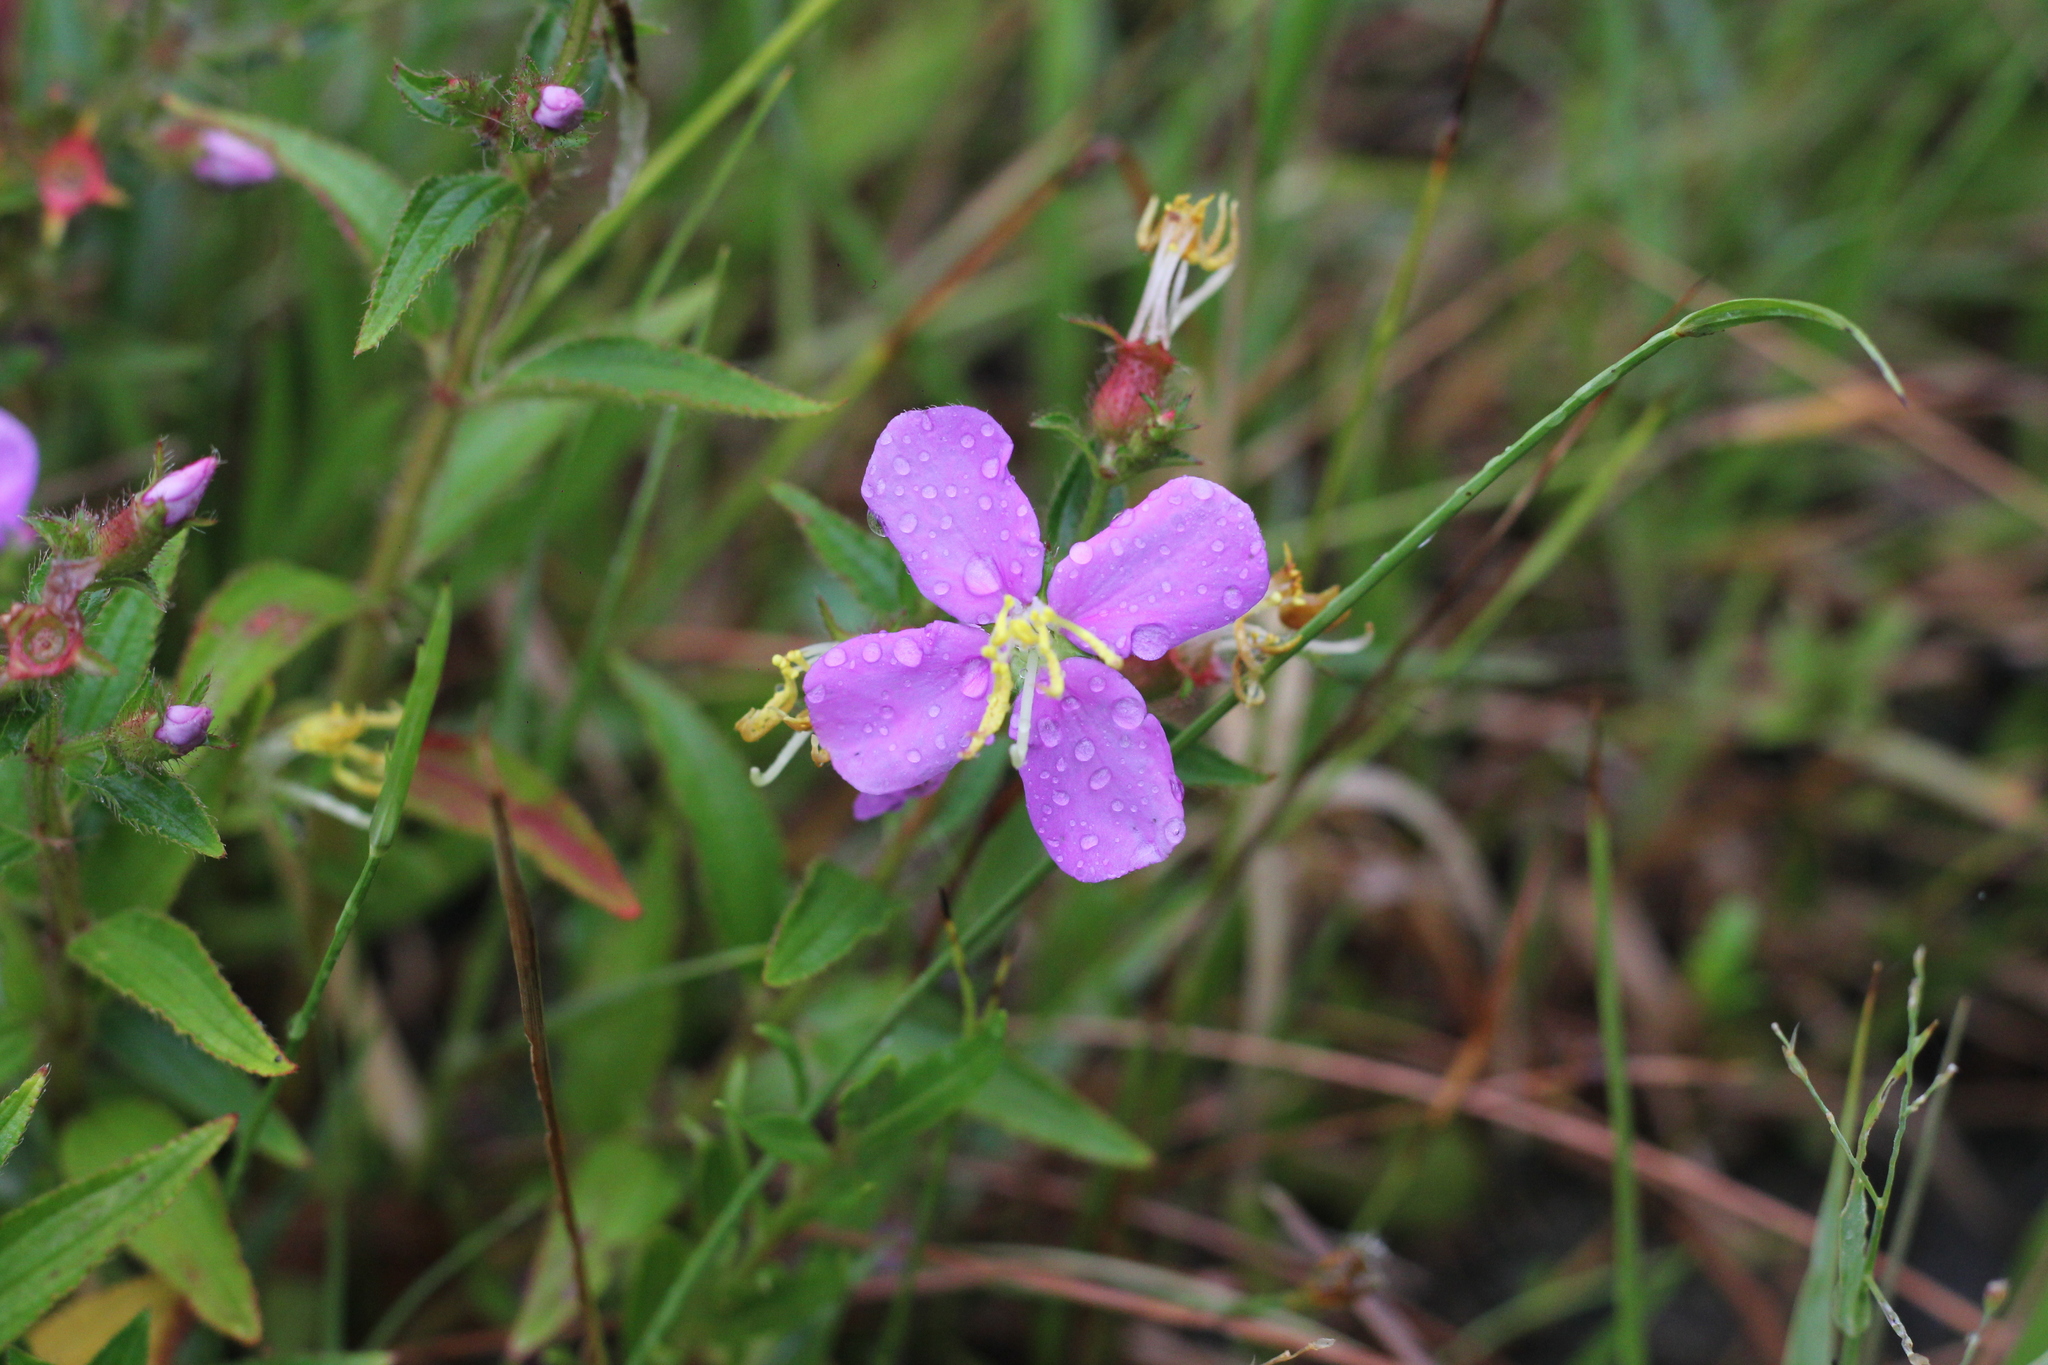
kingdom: Plantae
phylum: Tracheophyta
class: Magnoliopsida
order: Myrtales
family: Melastomataceae
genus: Chaetogastra
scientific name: Chaetogastra nitida
